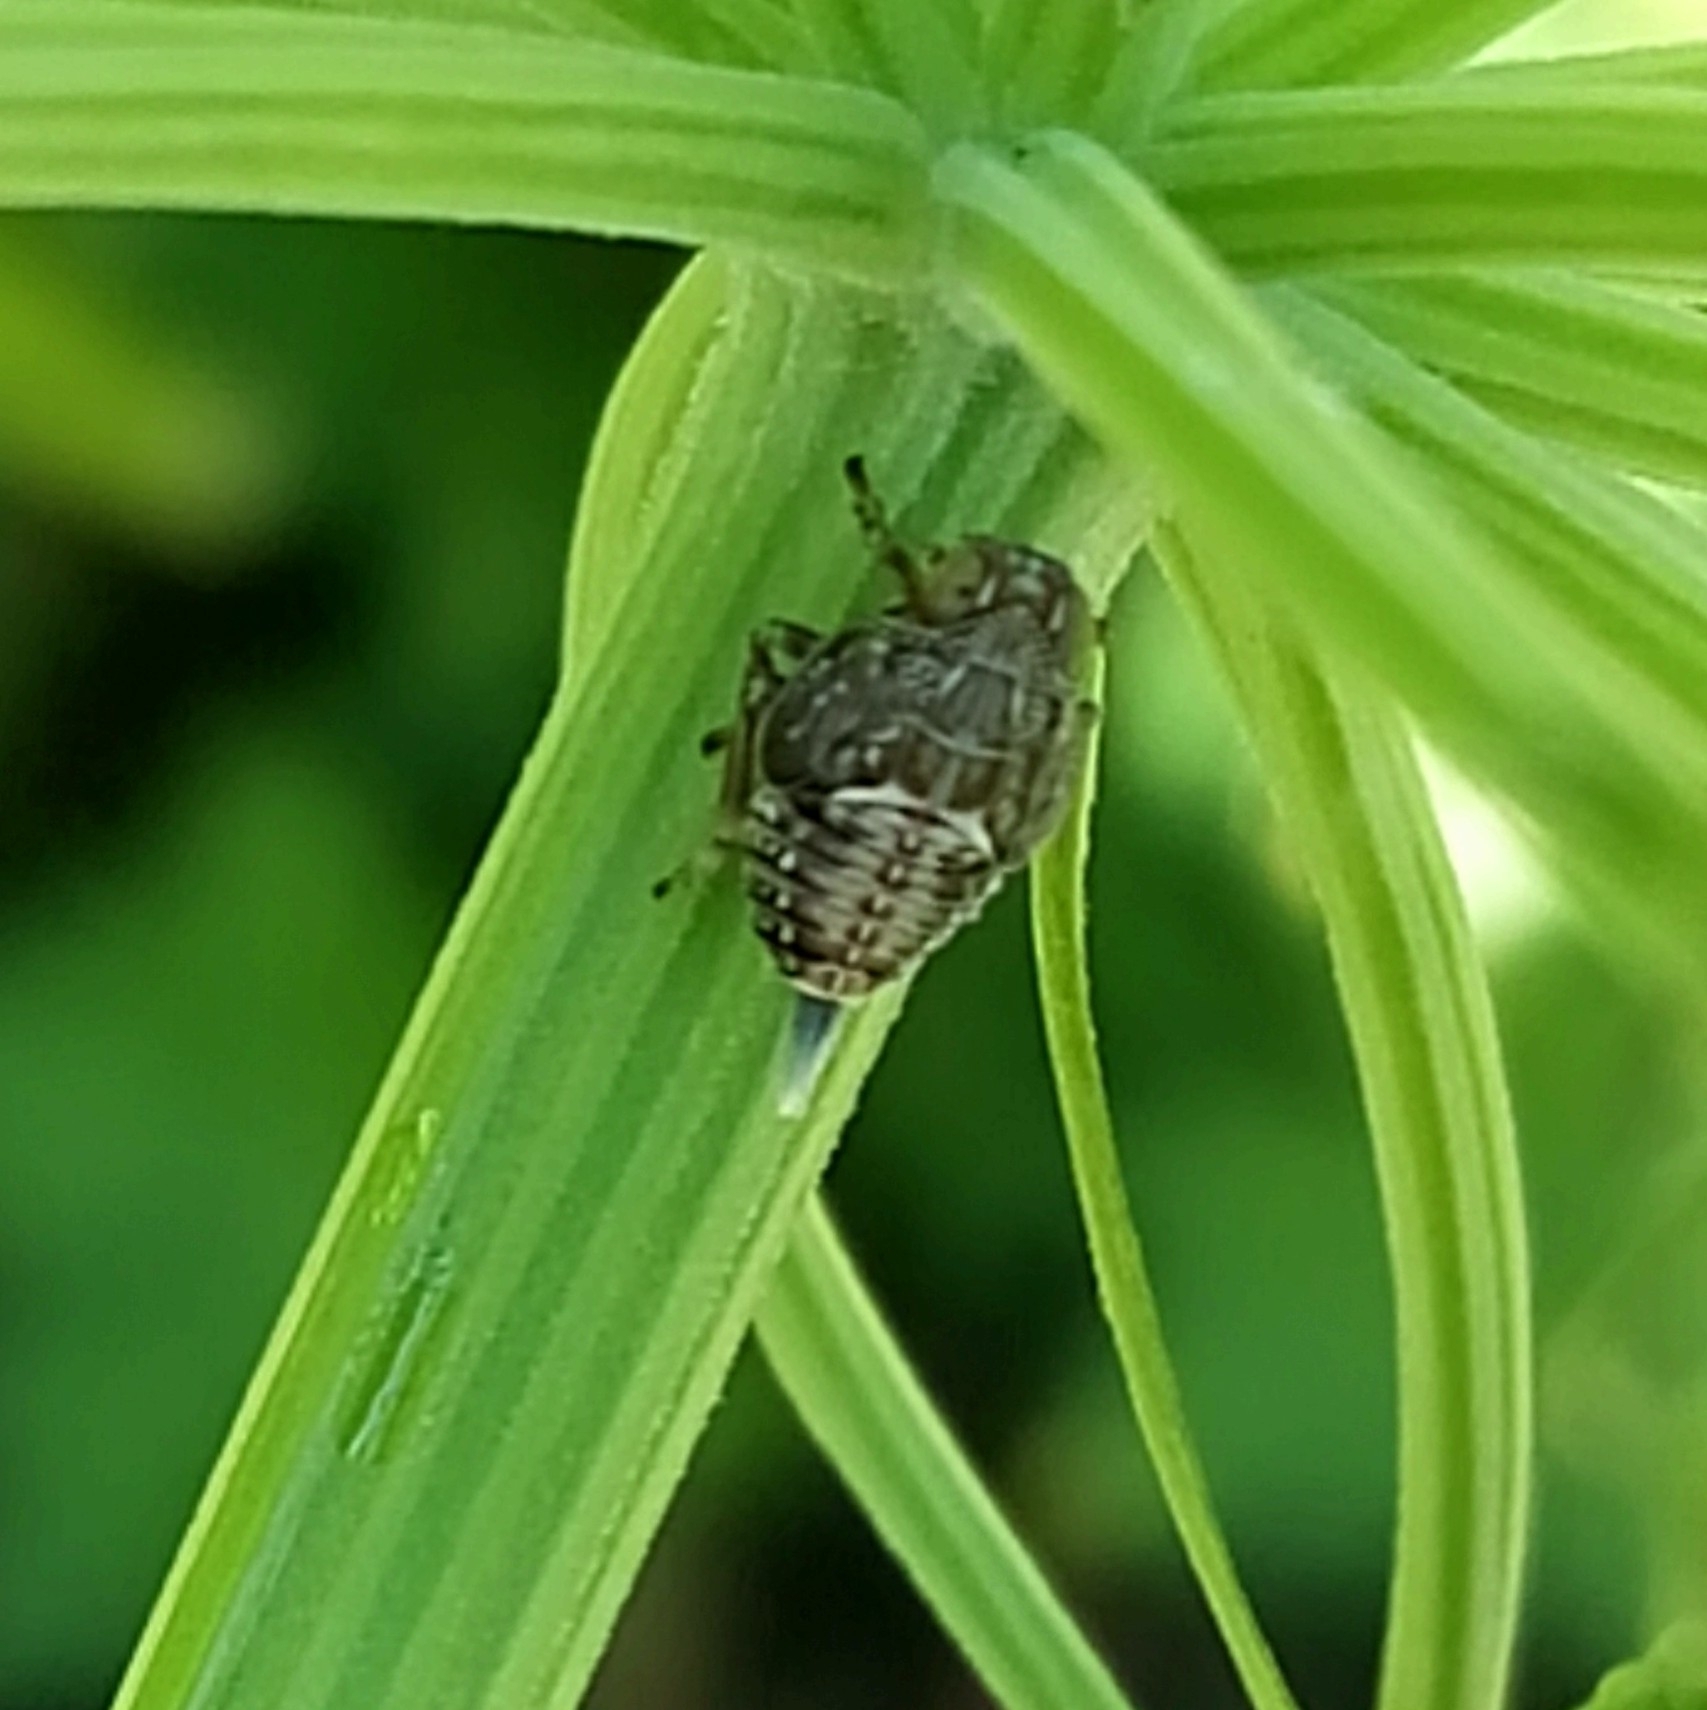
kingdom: Animalia
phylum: Arthropoda
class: Insecta
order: Hemiptera
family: Issidae
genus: Issus
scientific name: Issus
